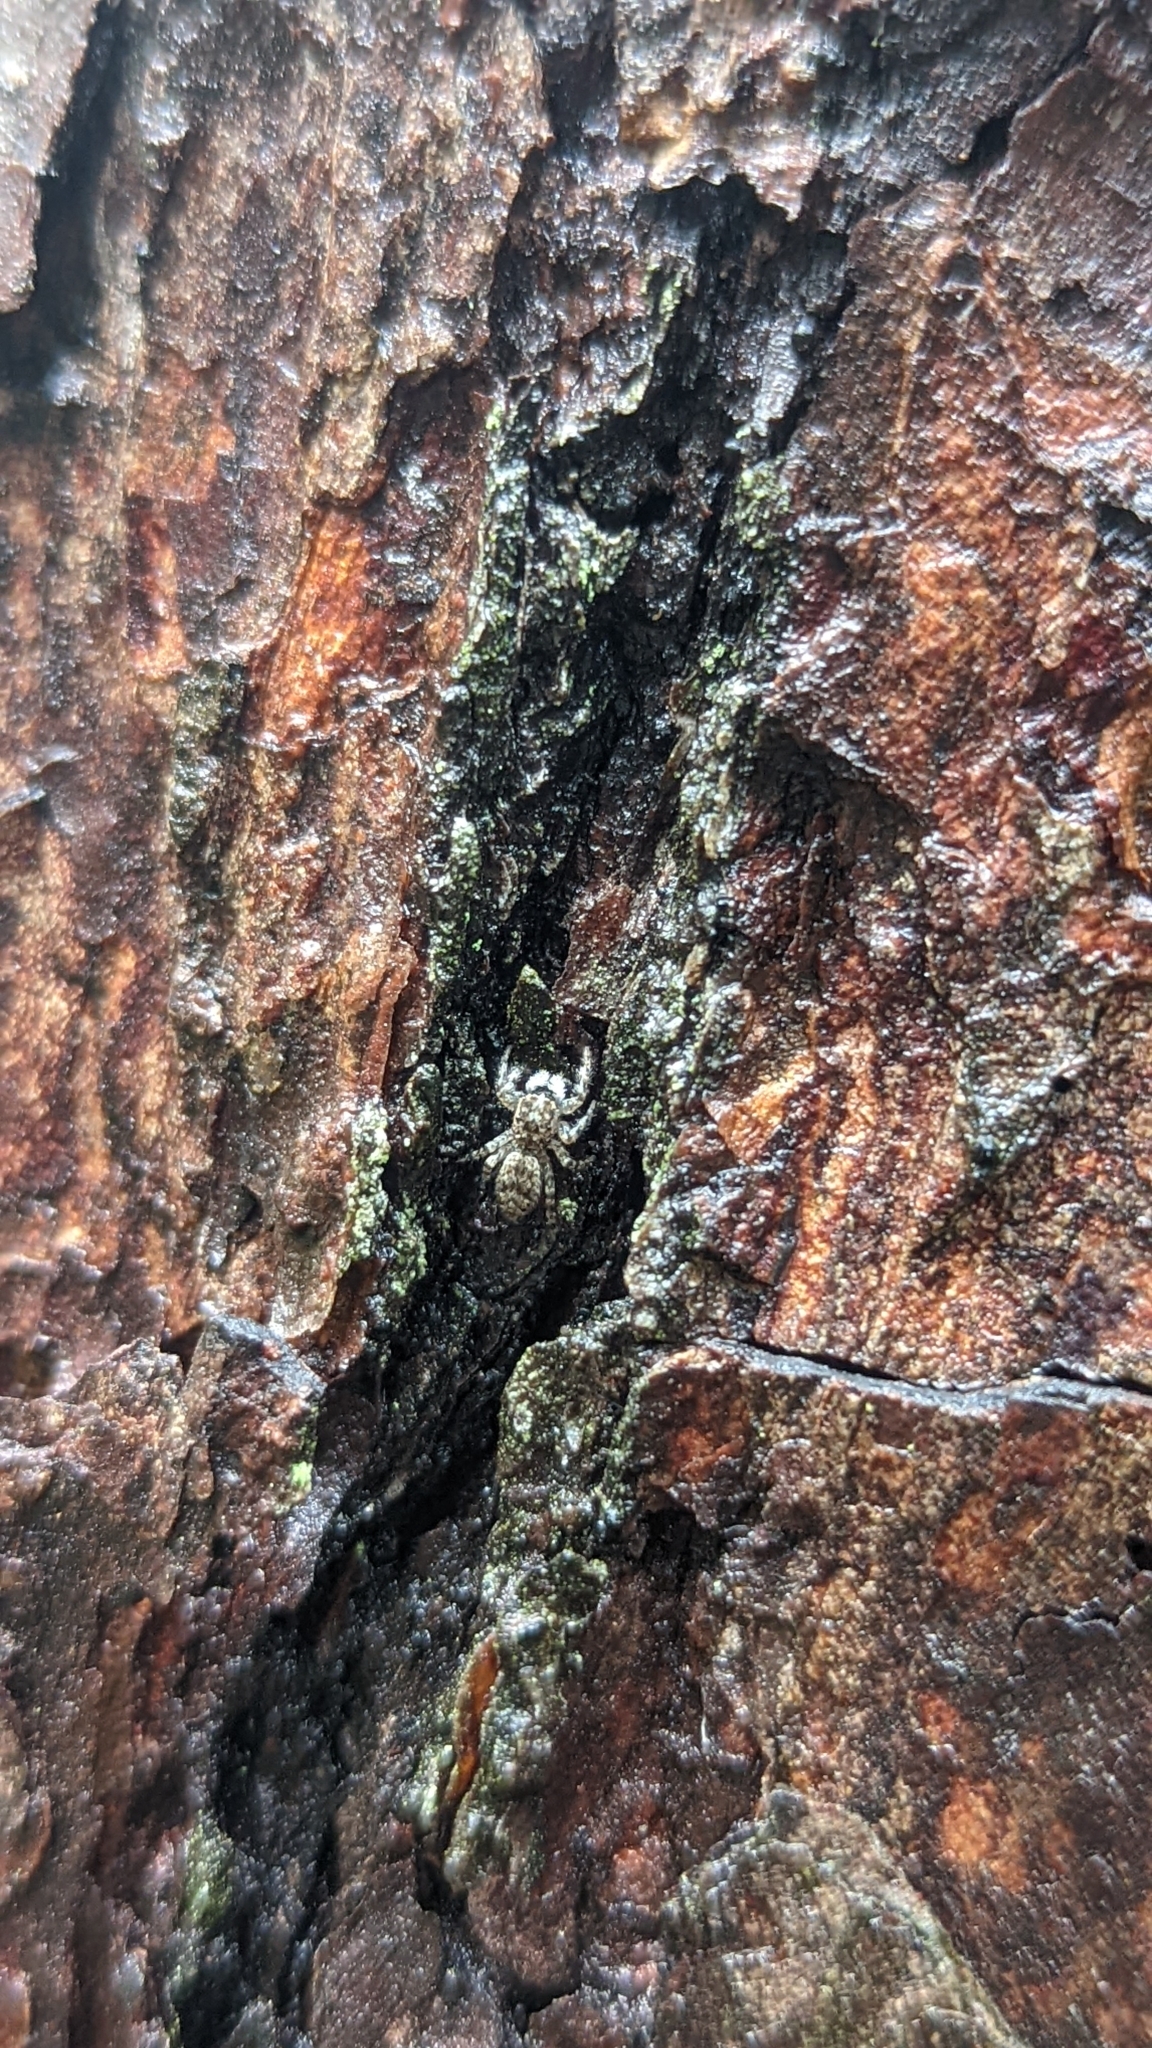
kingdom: Animalia
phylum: Arthropoda
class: Arachnida
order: Araneae
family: Salticidae
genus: Platycryptus
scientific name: Platycryptus undatus
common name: Tan jumping spider
